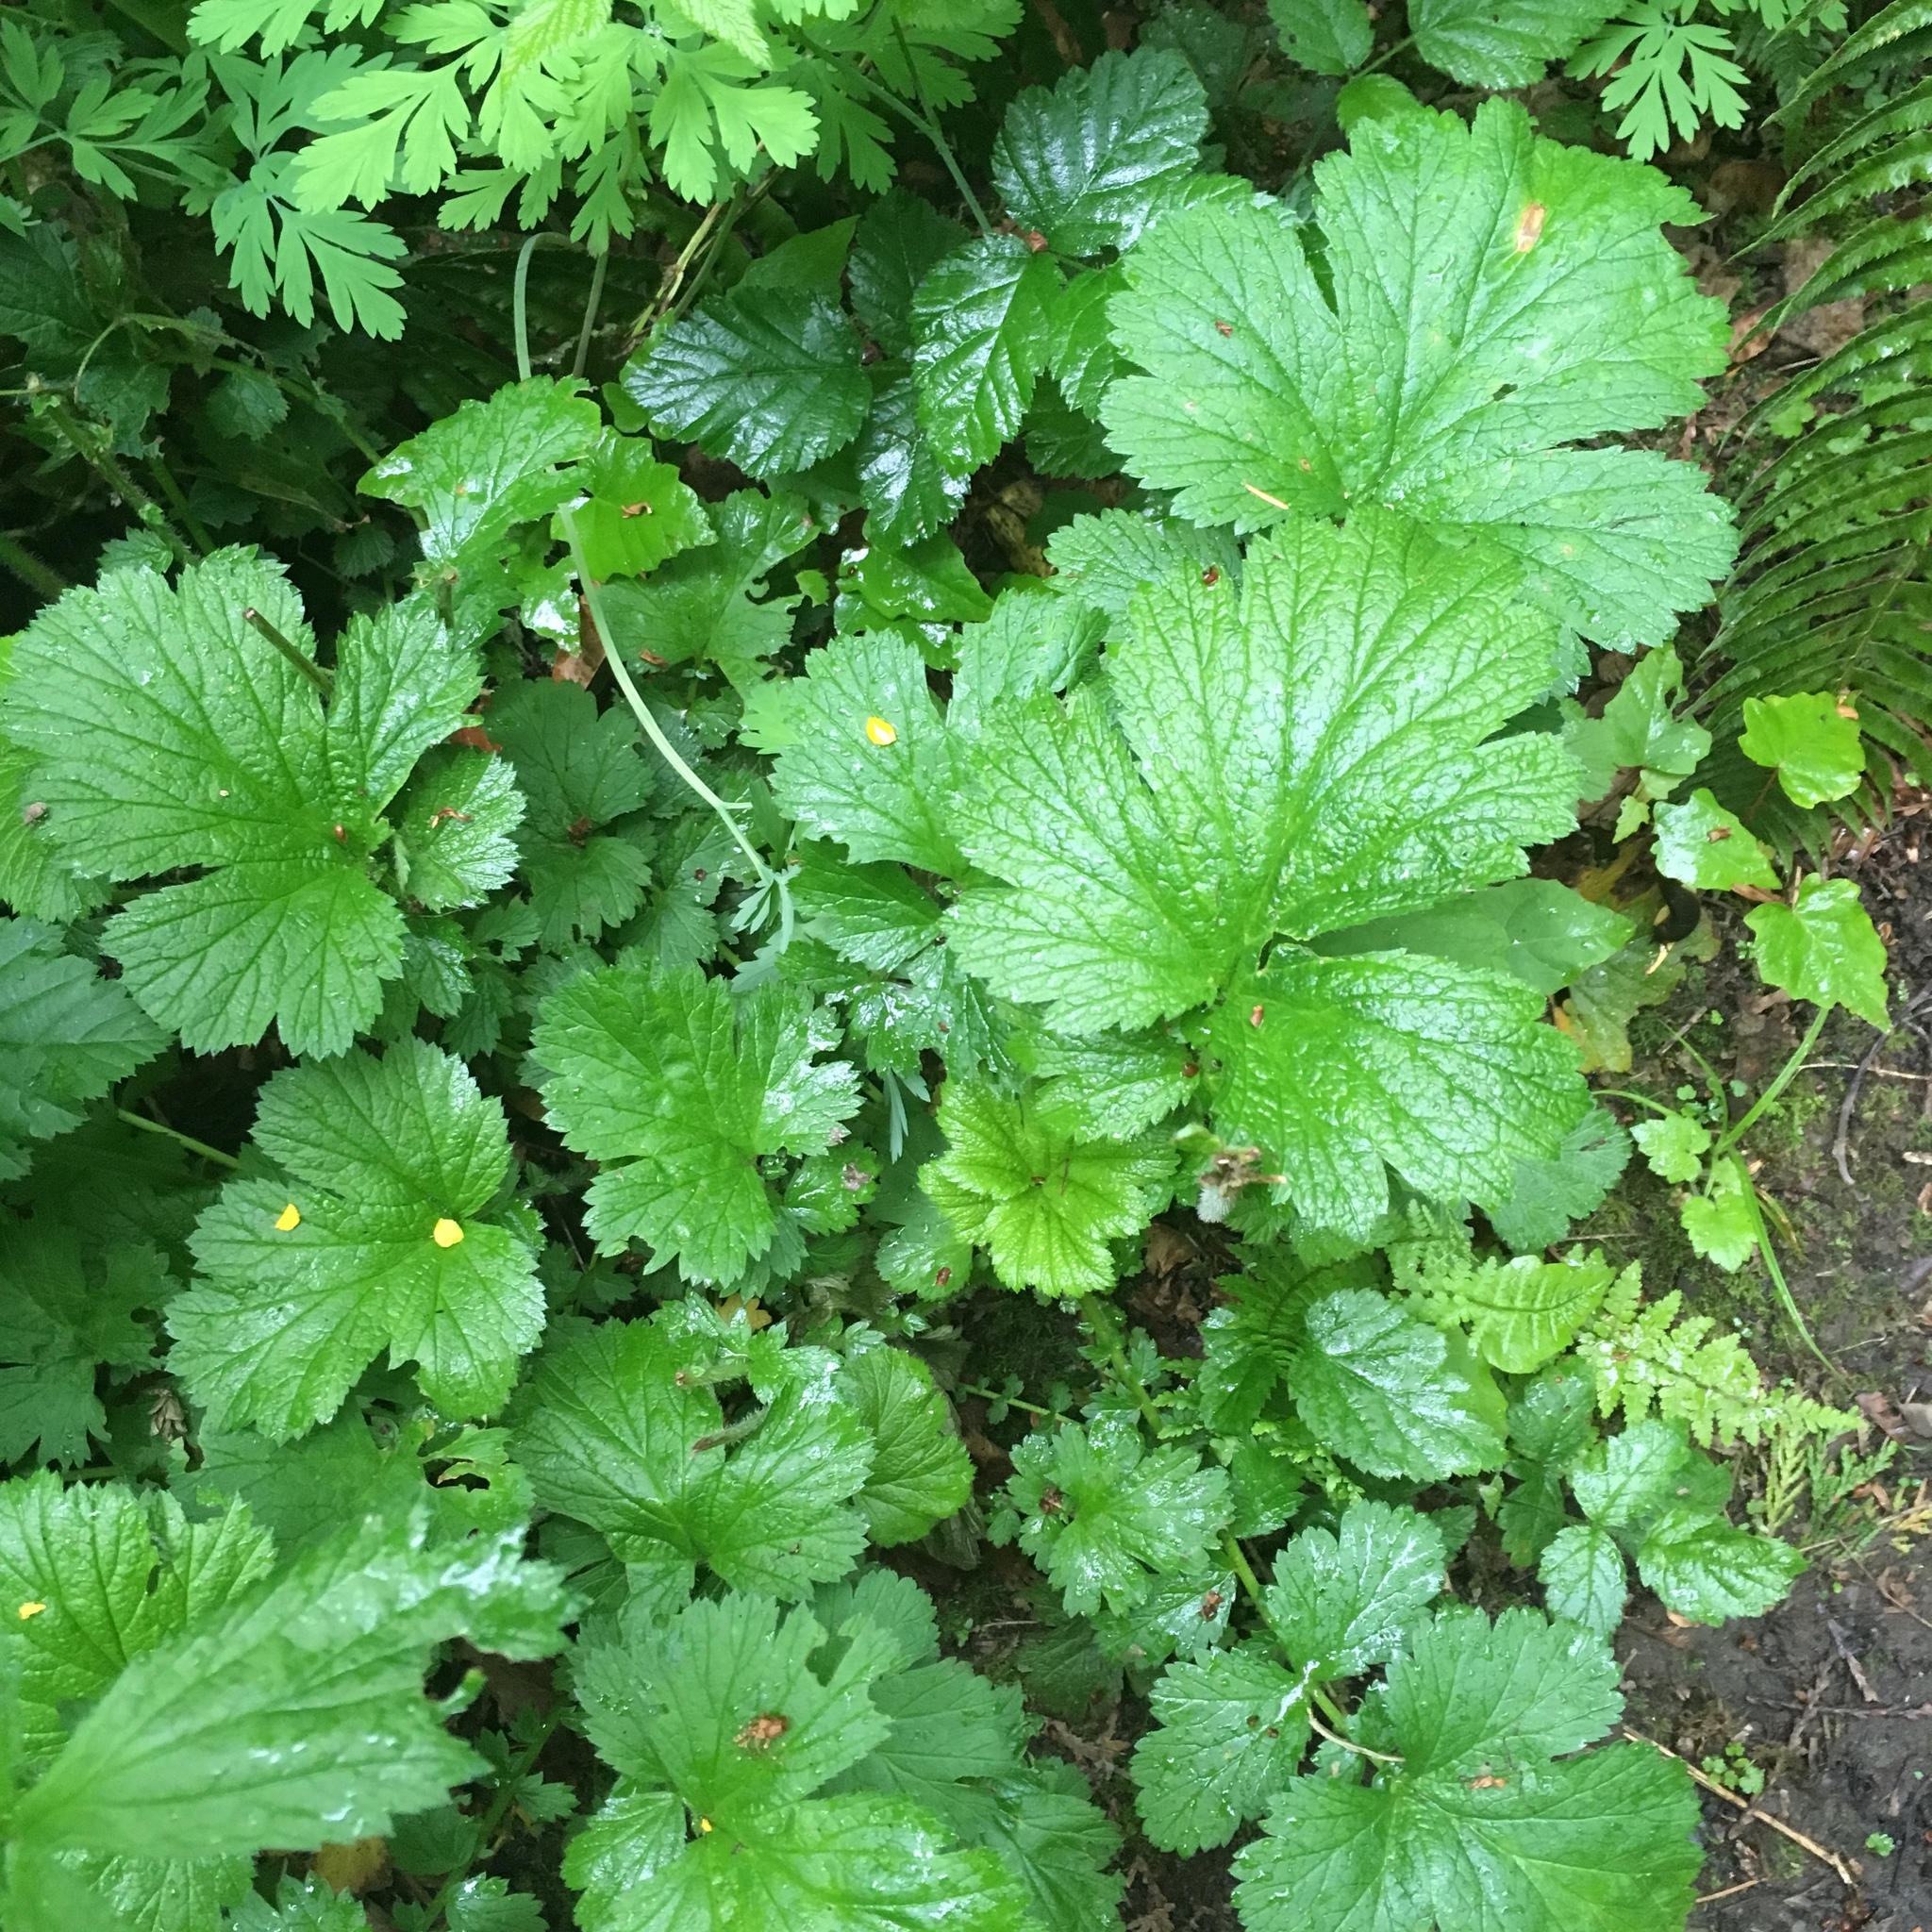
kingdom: Plantae
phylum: Tracheophyta
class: Magnoliopsida
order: Rosales
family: Rosaceae
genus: Geum
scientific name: Geum macrophyllum
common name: Large-leaved avens
